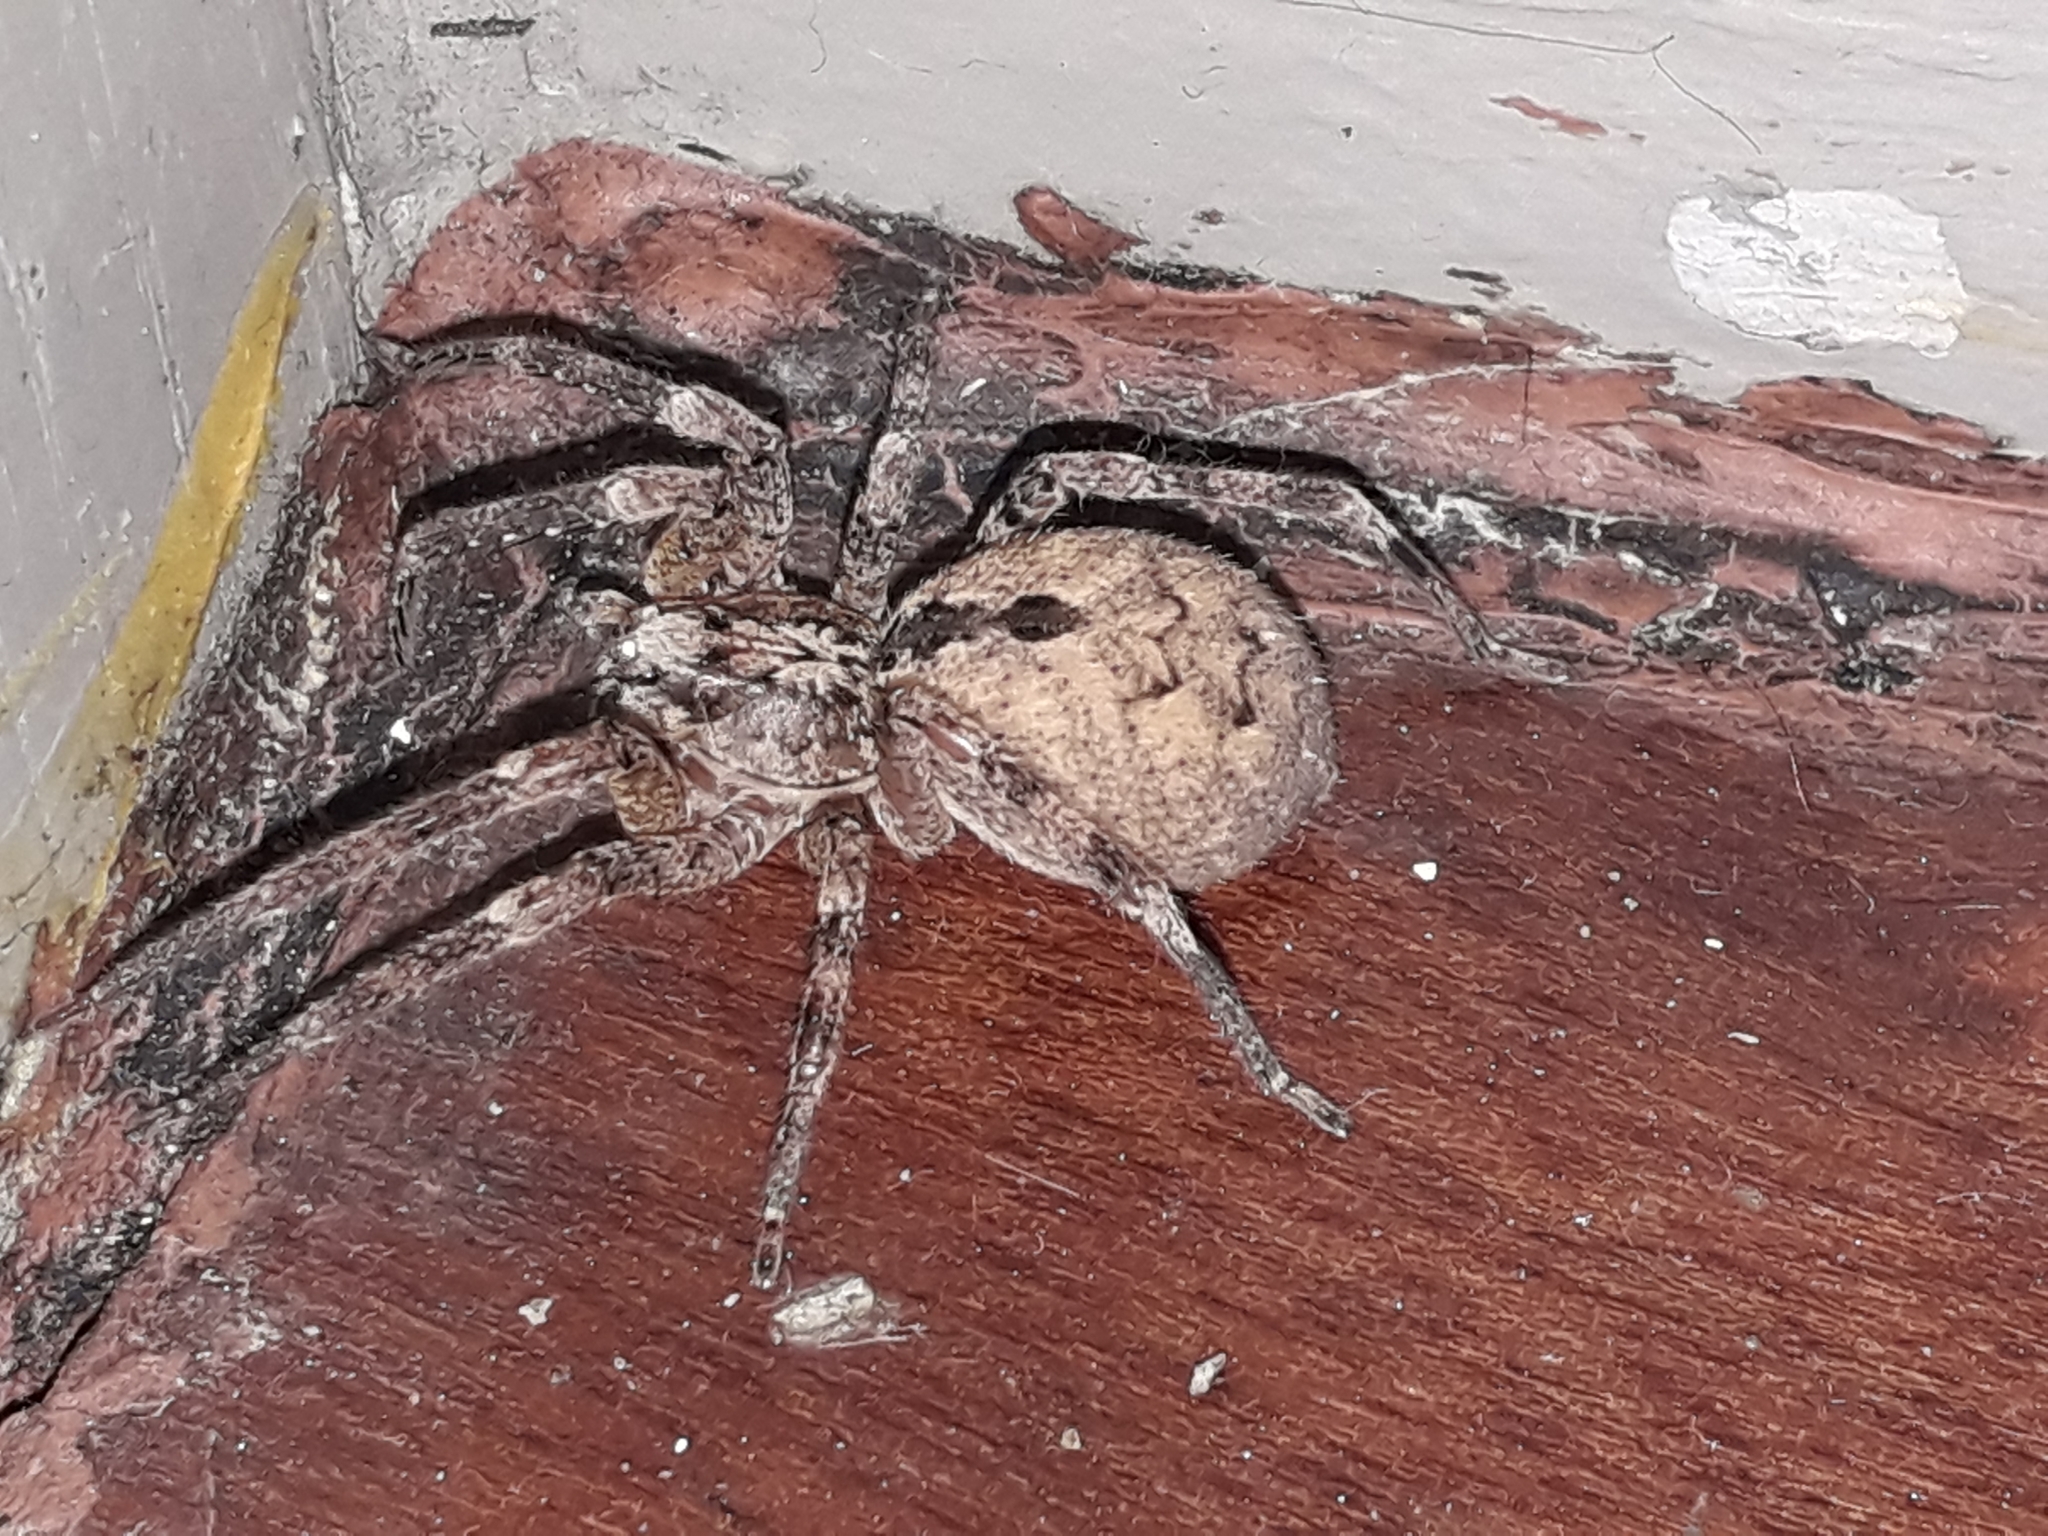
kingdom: Animalia
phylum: Arthropoda
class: Arachnida
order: Araneae
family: Zoropsidae
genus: Zoropsis
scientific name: Zoropsis spinimana
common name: Zoropsid spider
